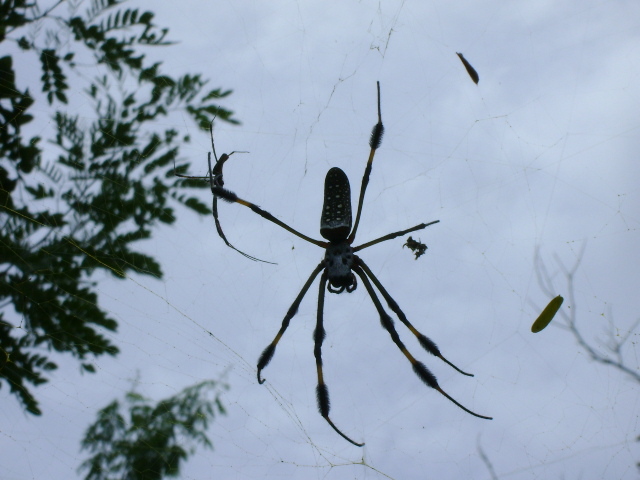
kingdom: Animalia
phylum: Arthropoda
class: Arachnida
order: Araneae
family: Araneidae
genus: Trichonephila
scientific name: Trichonephila clavipes
